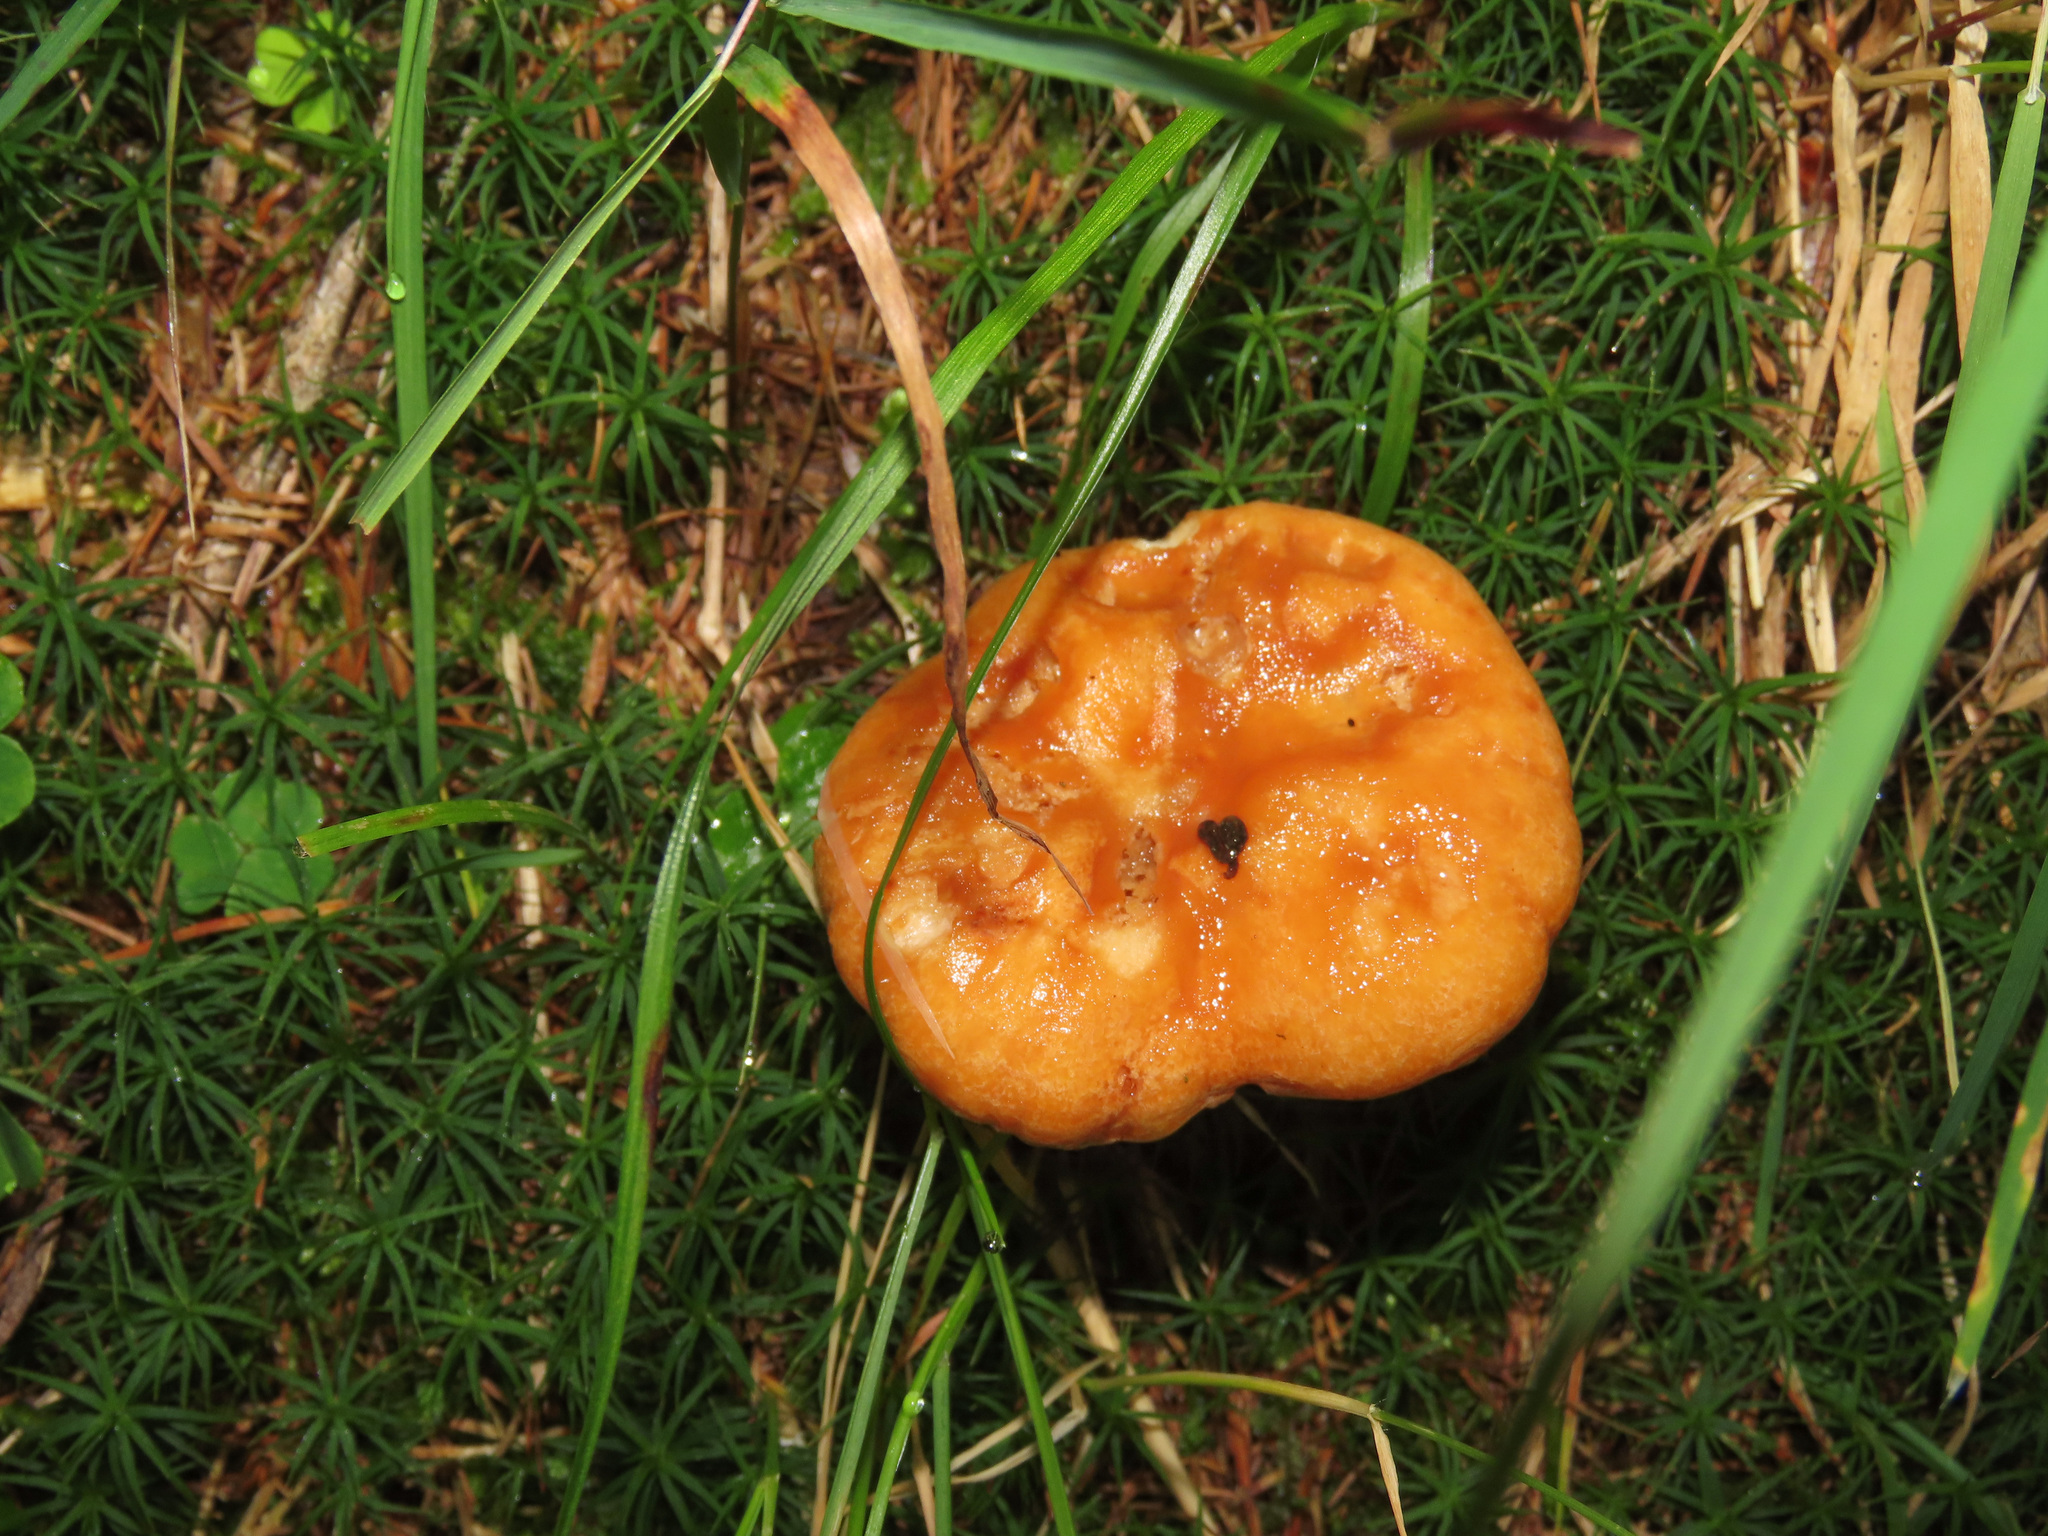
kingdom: Fungi
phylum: Basidiomycota
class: Agaricomycetes
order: Russulales
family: Russulaceae
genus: Lactarius
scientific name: Lactarius porniniae
